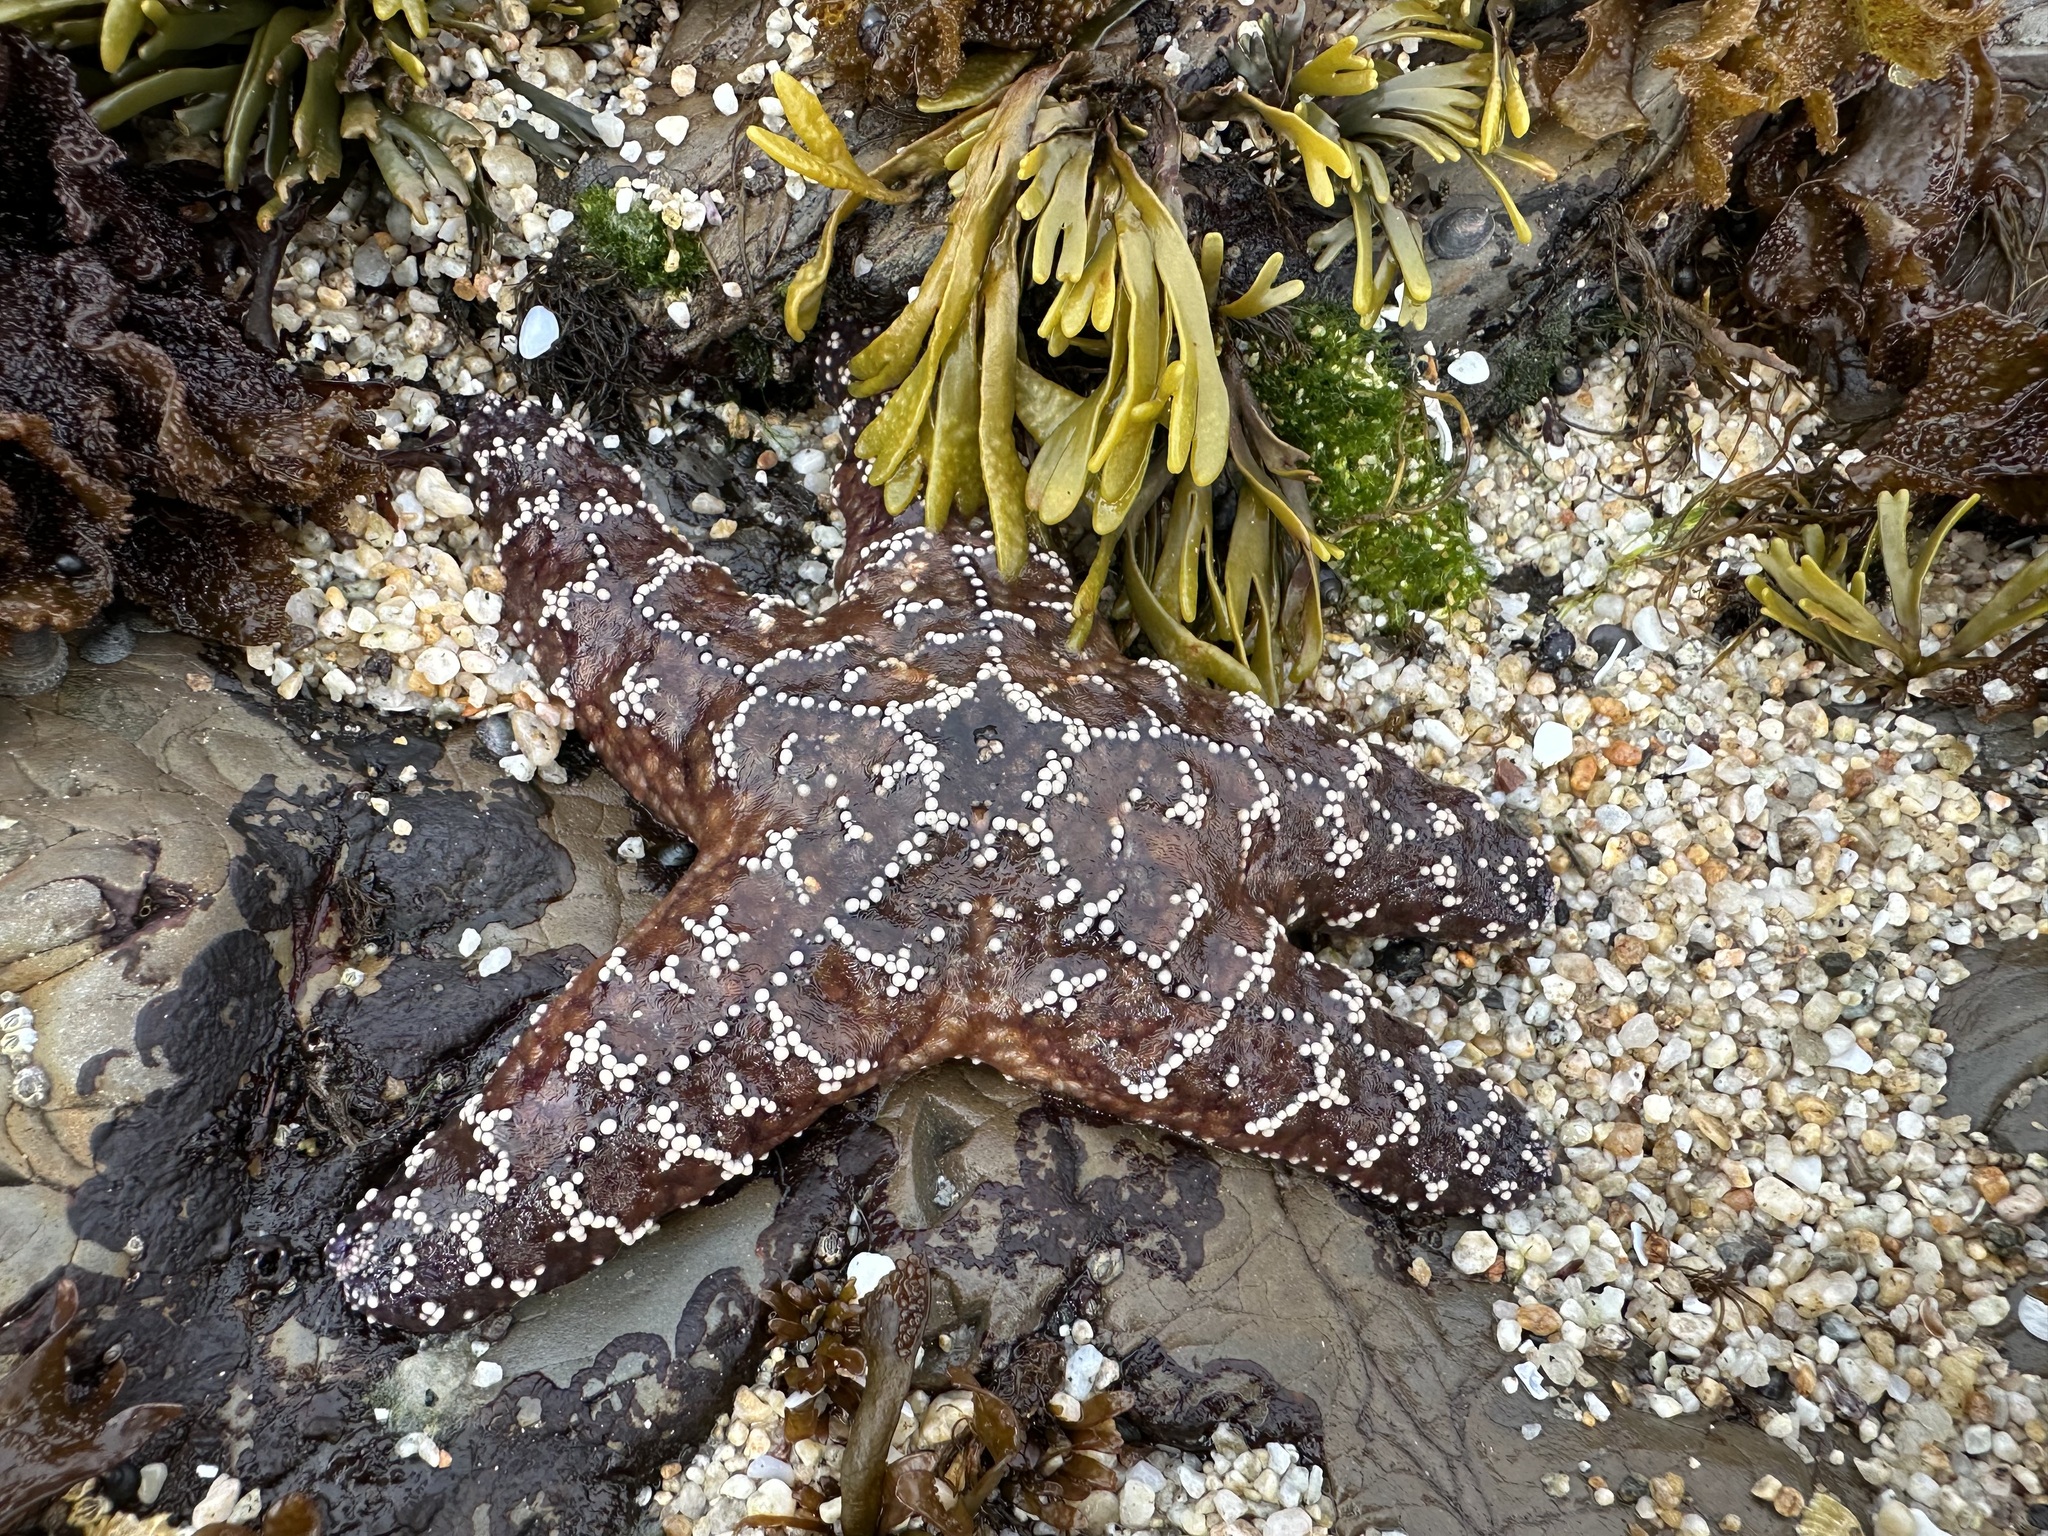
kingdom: Animalia
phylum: Echinodermata
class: Asteroidea
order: Forcipulatida
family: Asteriidae
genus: Pisaster
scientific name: Pisaster ochraceus
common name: Ochre stars
